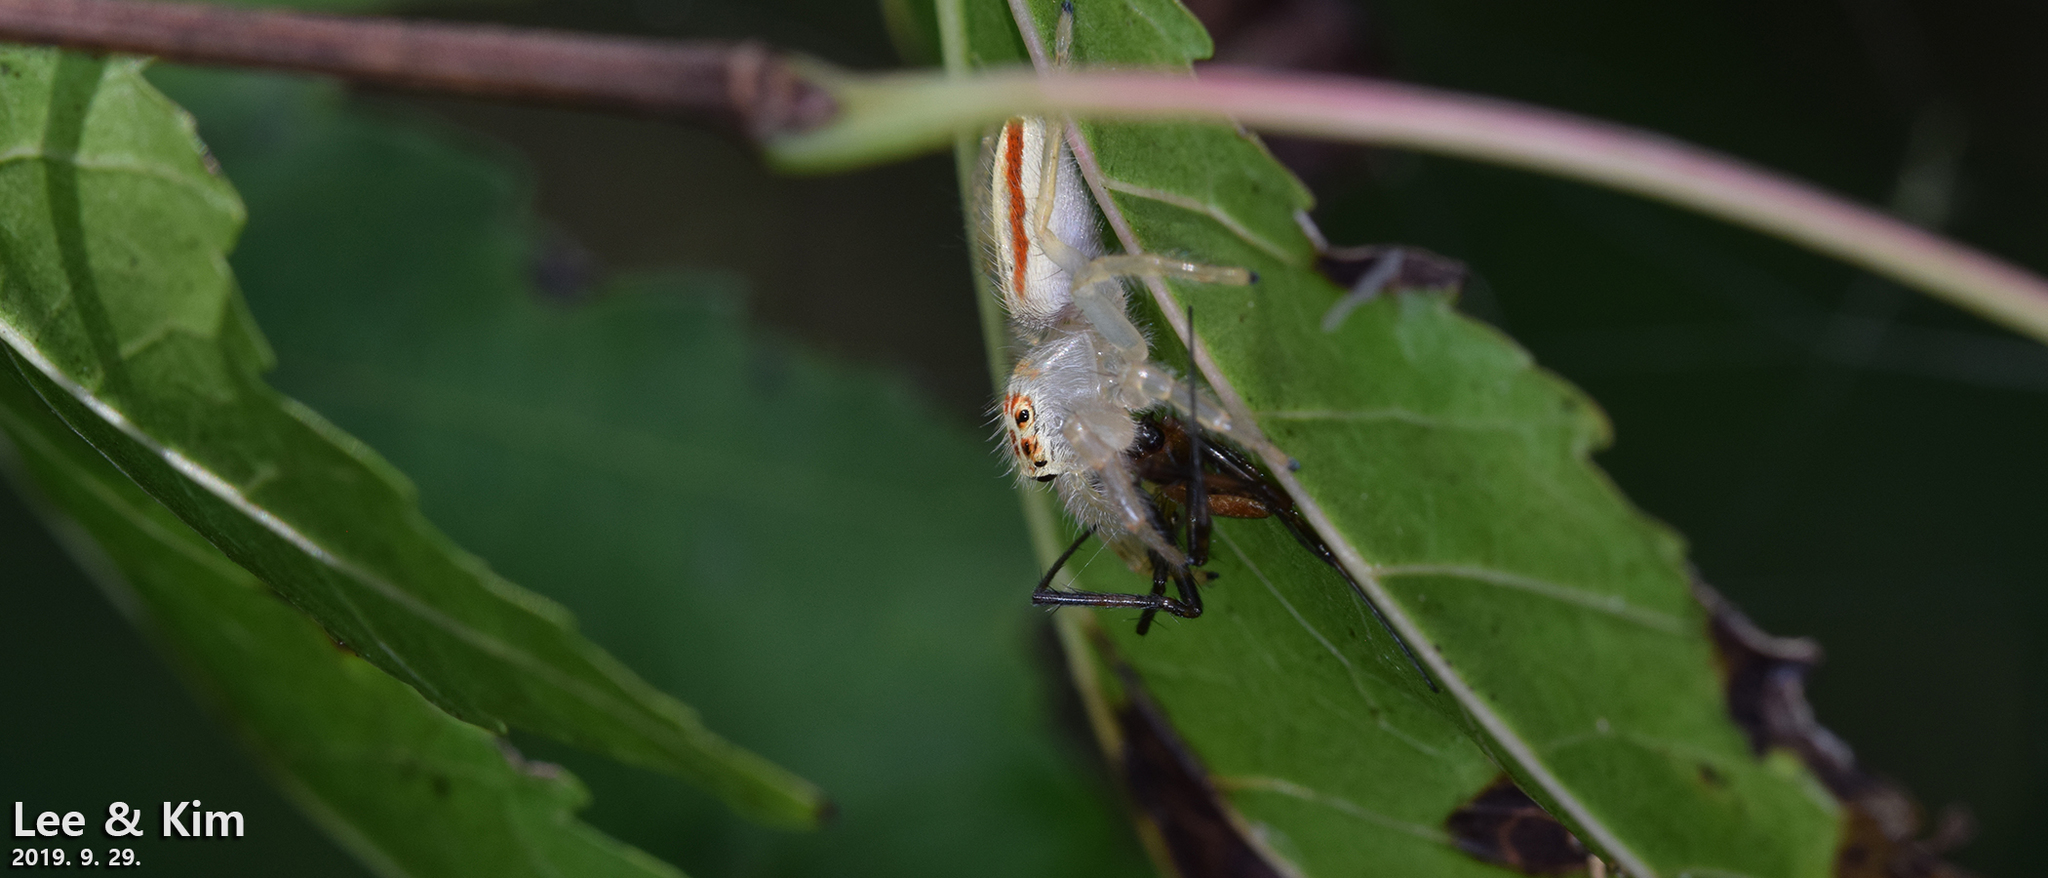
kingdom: Animalia
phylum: Arthropoda
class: Arachnida
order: Araneae
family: Salticidae
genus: Telamonia
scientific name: Telamonia vlijmi
